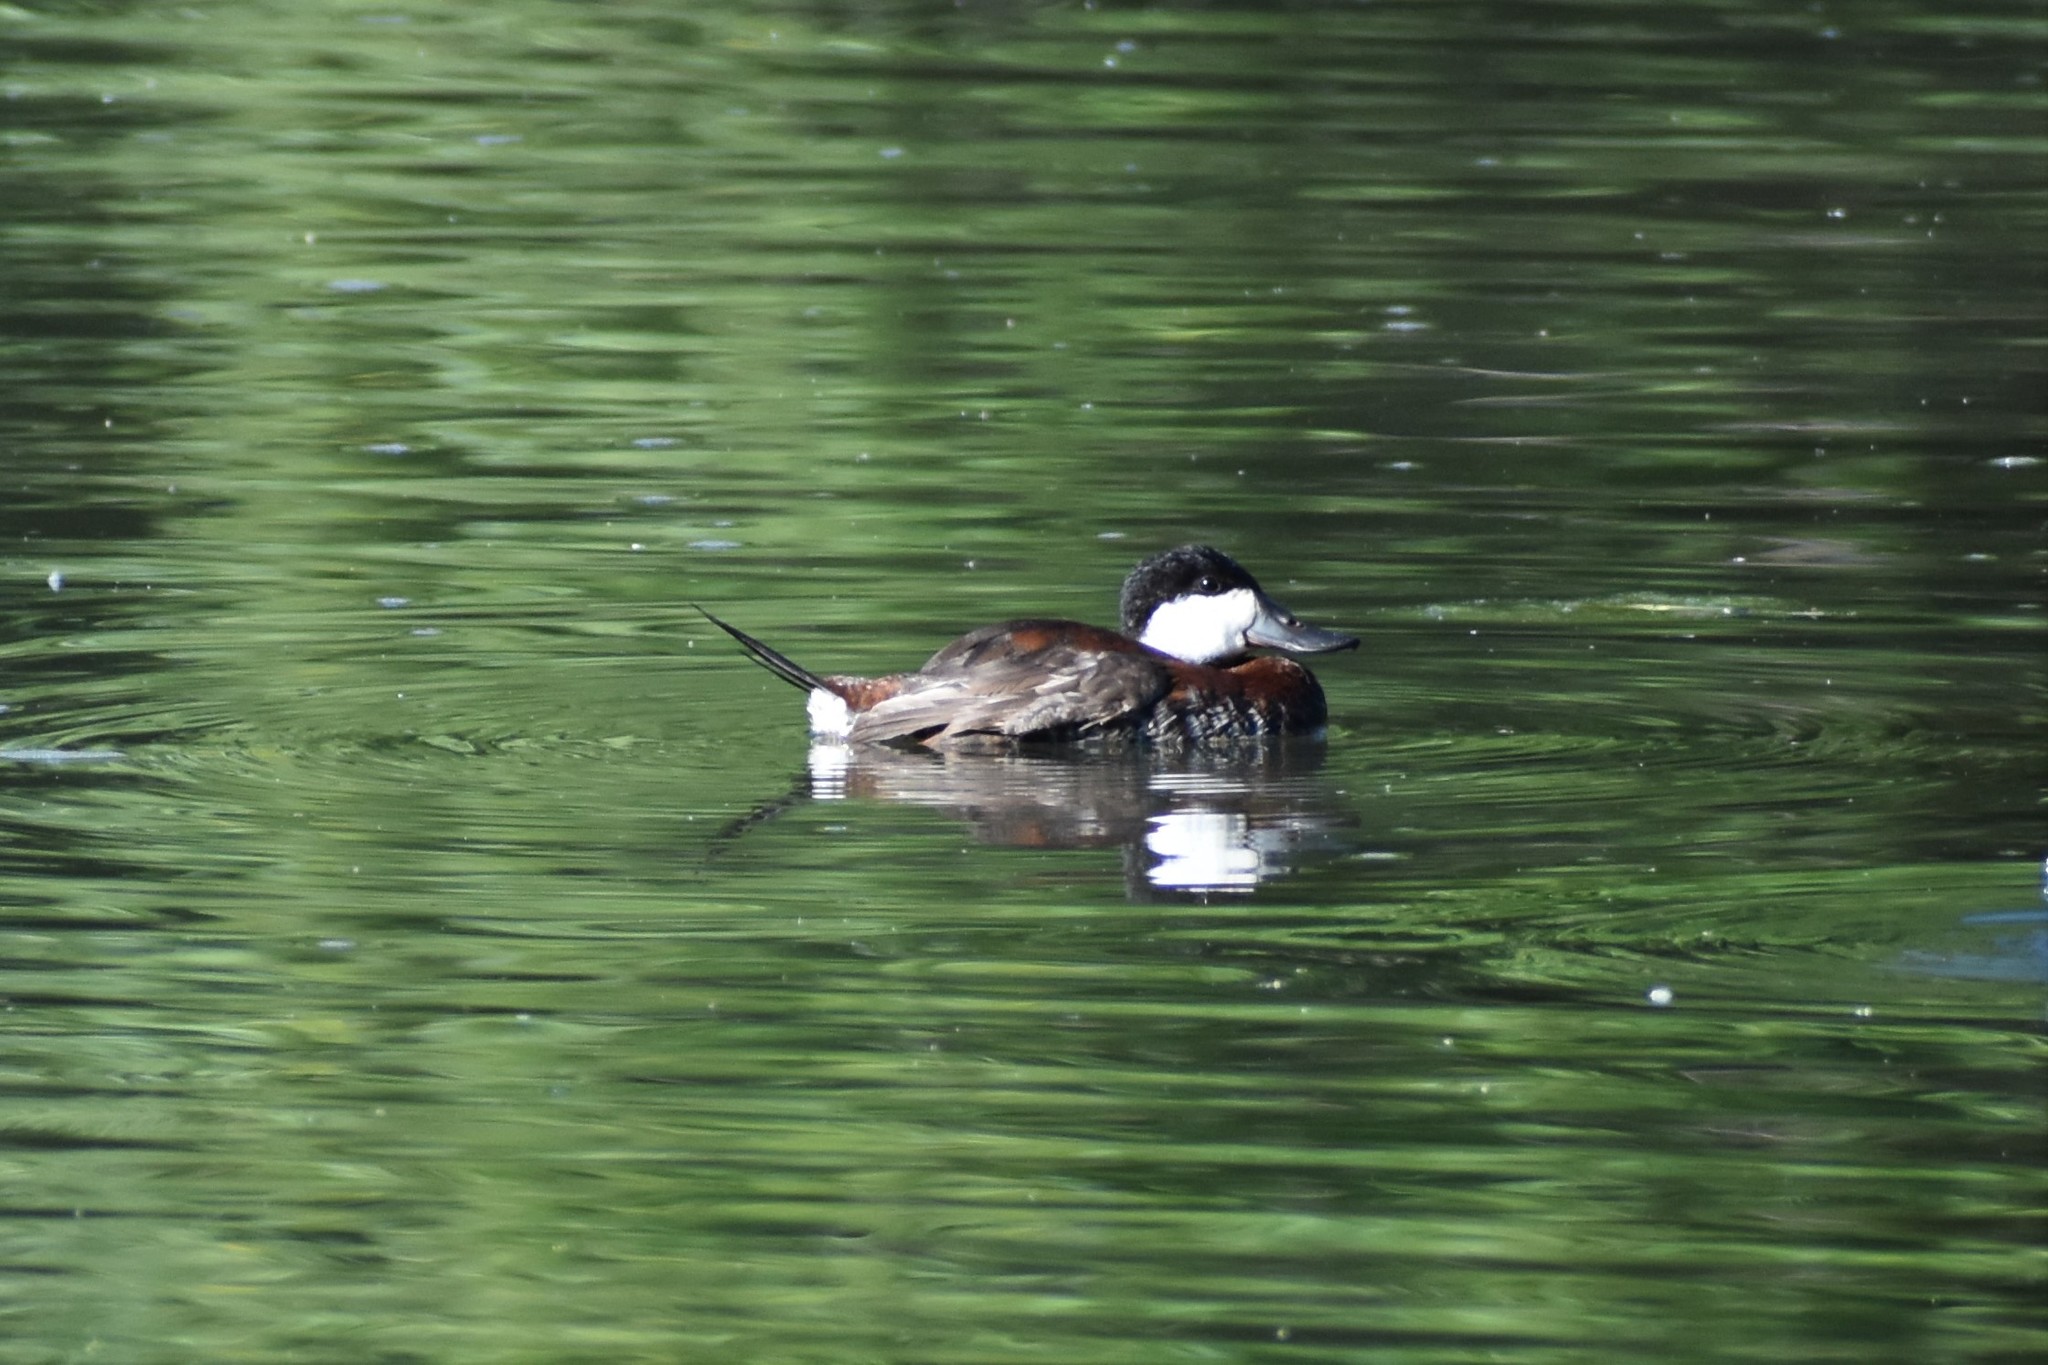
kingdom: Animalia
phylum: Chordata
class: Aves
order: Anseriformes
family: Anatidae
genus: Oxyura
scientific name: Oxyura jamaicensis
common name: Ruddy duck
